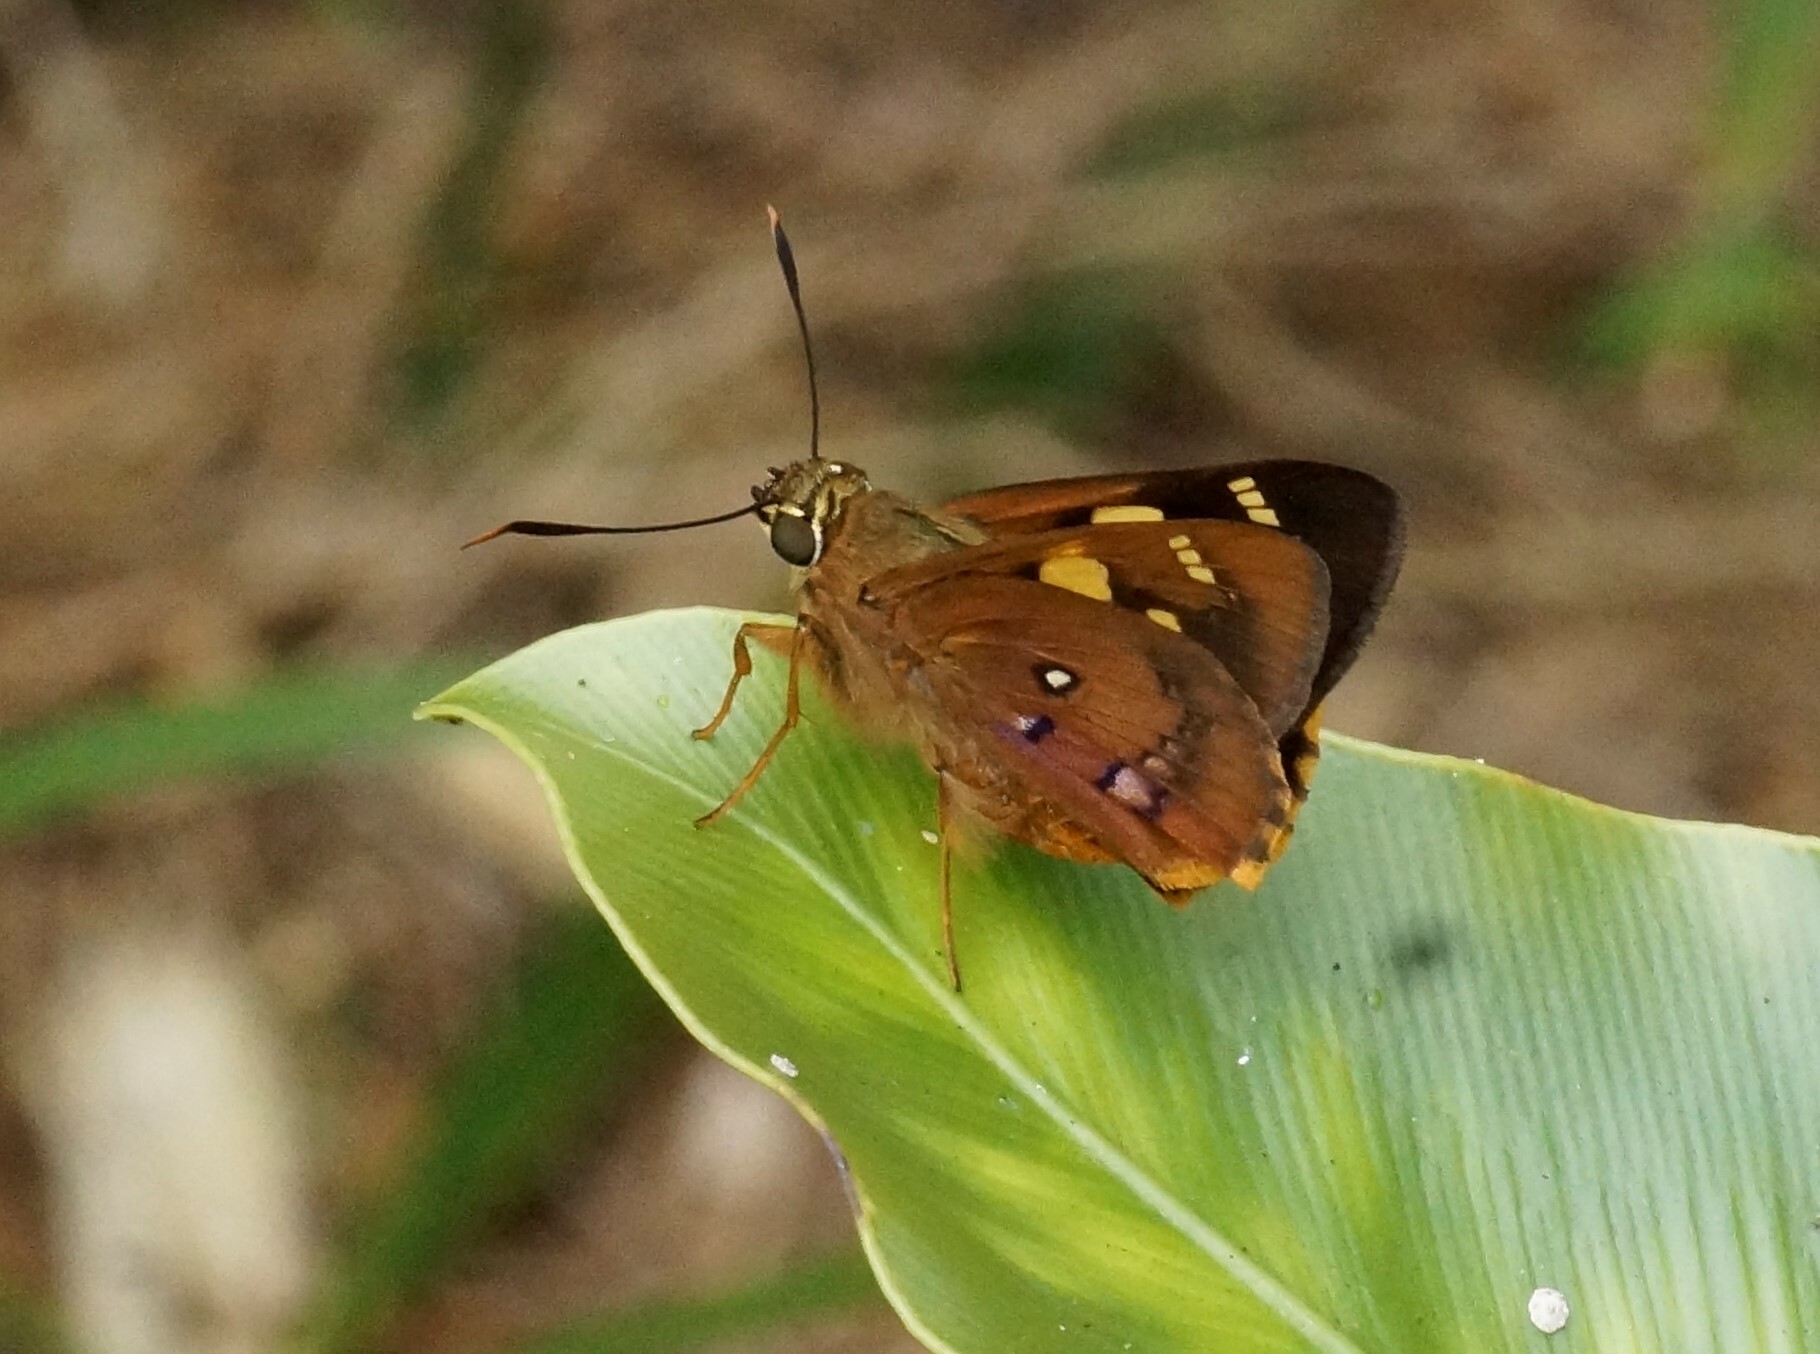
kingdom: Animalia
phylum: Arthropoda
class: Insecta
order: Lepidoptera
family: Hesperiidae
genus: Trapezites
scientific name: Trapezites symmomus
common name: Splendid ochre
